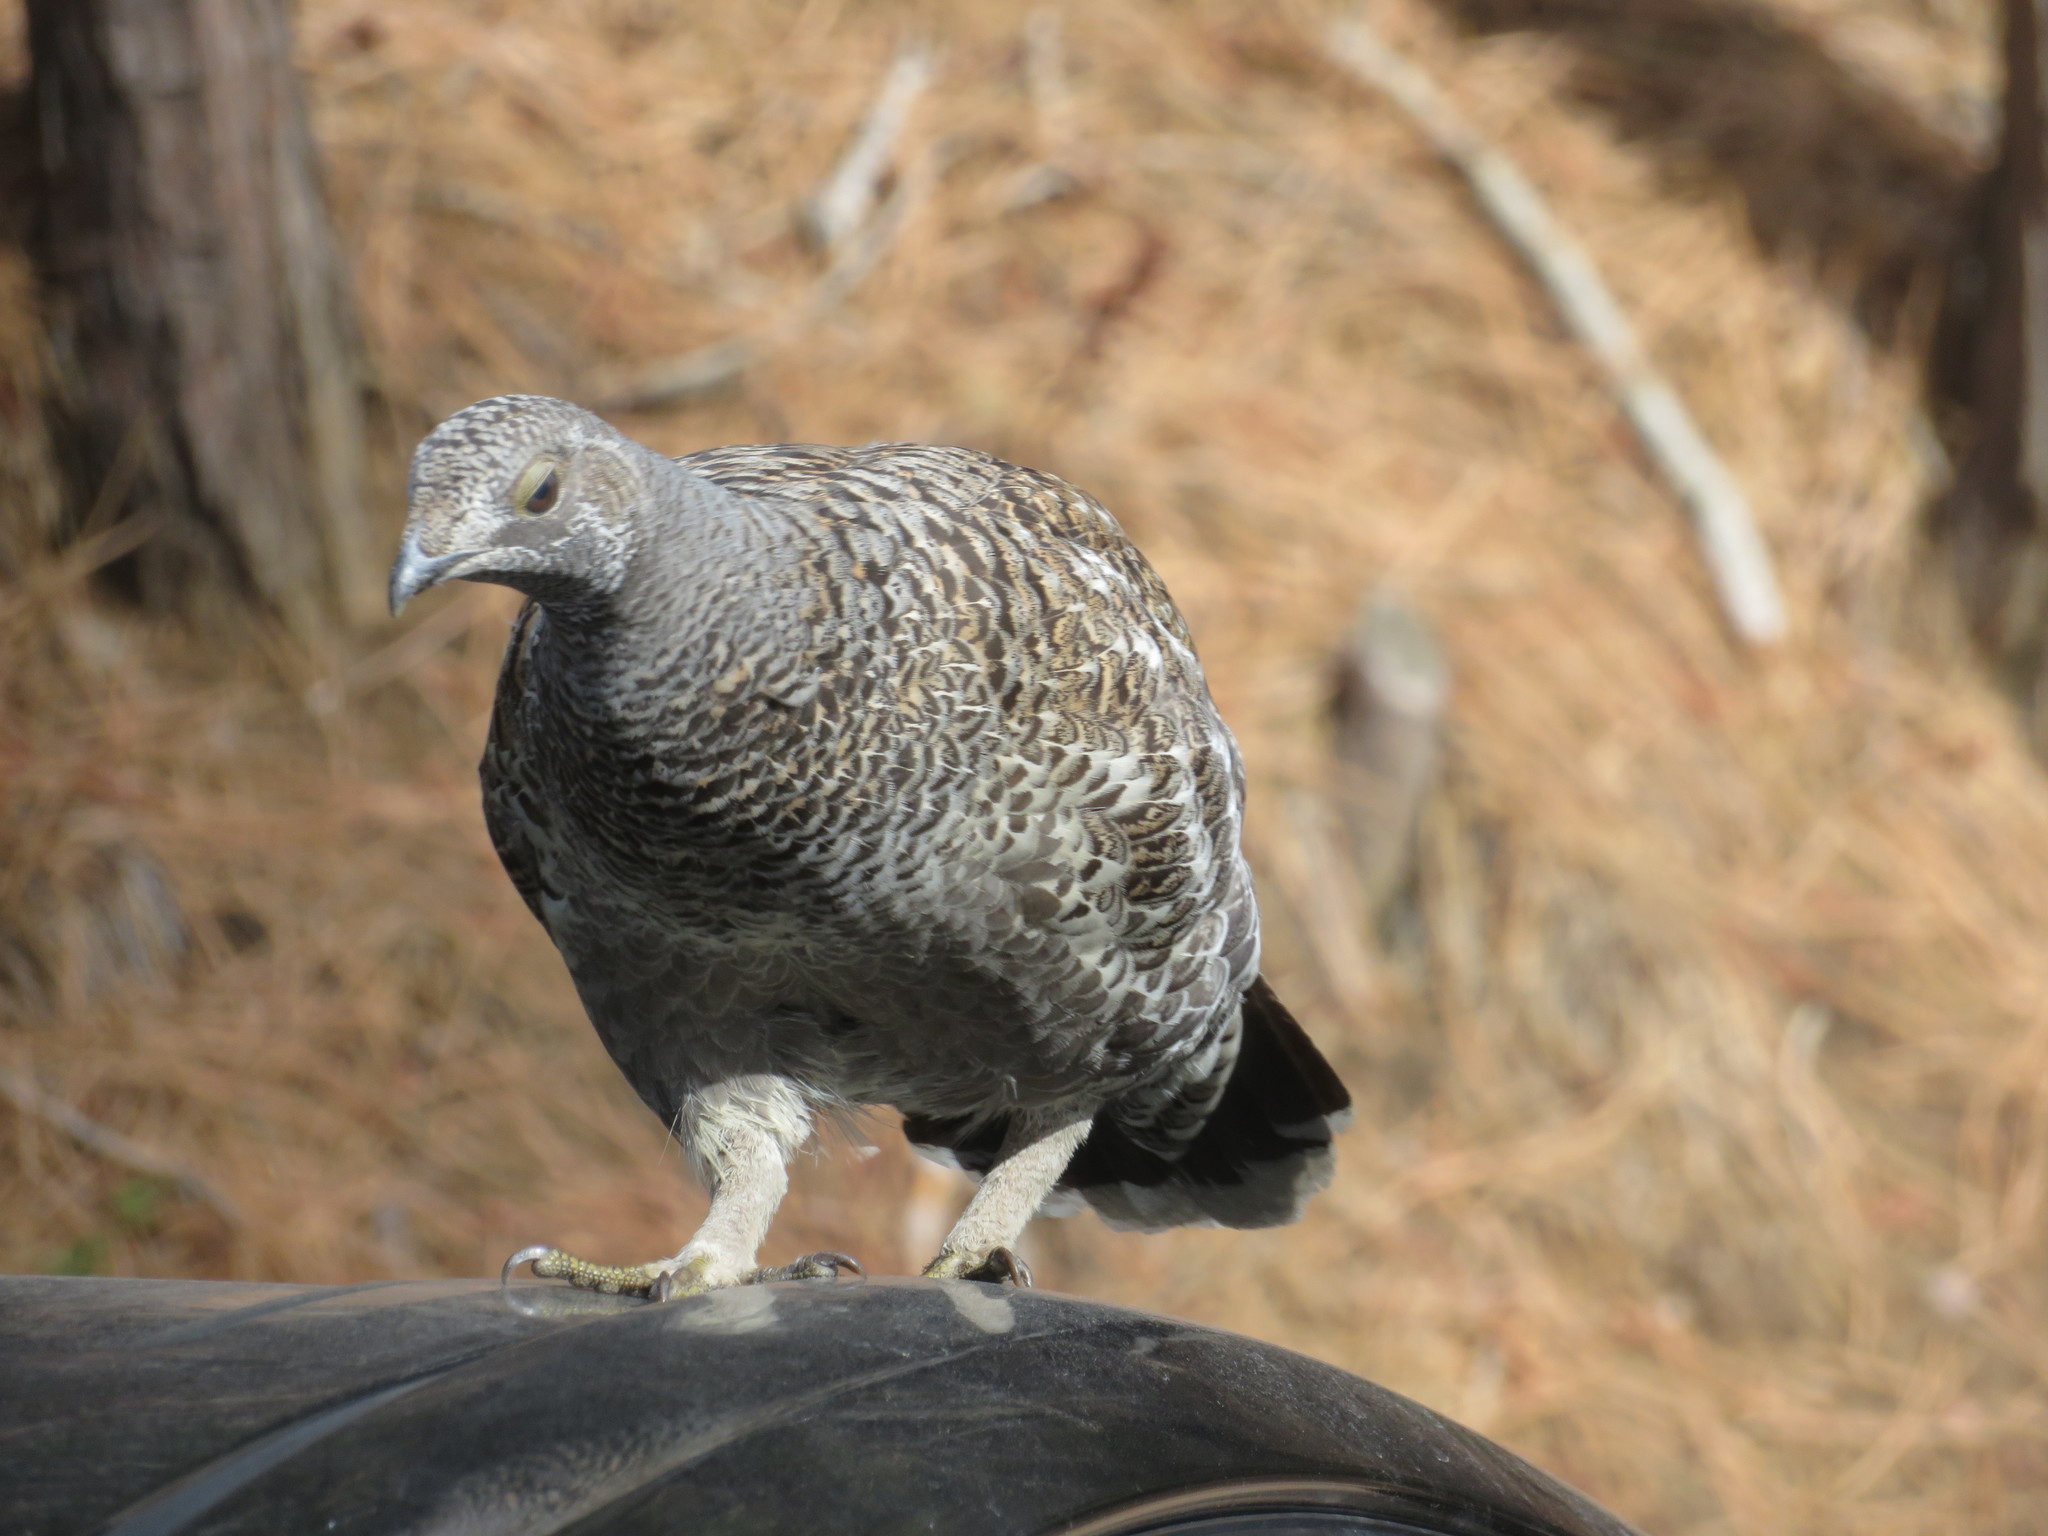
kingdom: Animalia
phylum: Chordata
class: Aves
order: Galliformes
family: Phasianidae
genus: Dendragapus
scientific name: Dendragapus fuliginosus
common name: Sooty grouse
